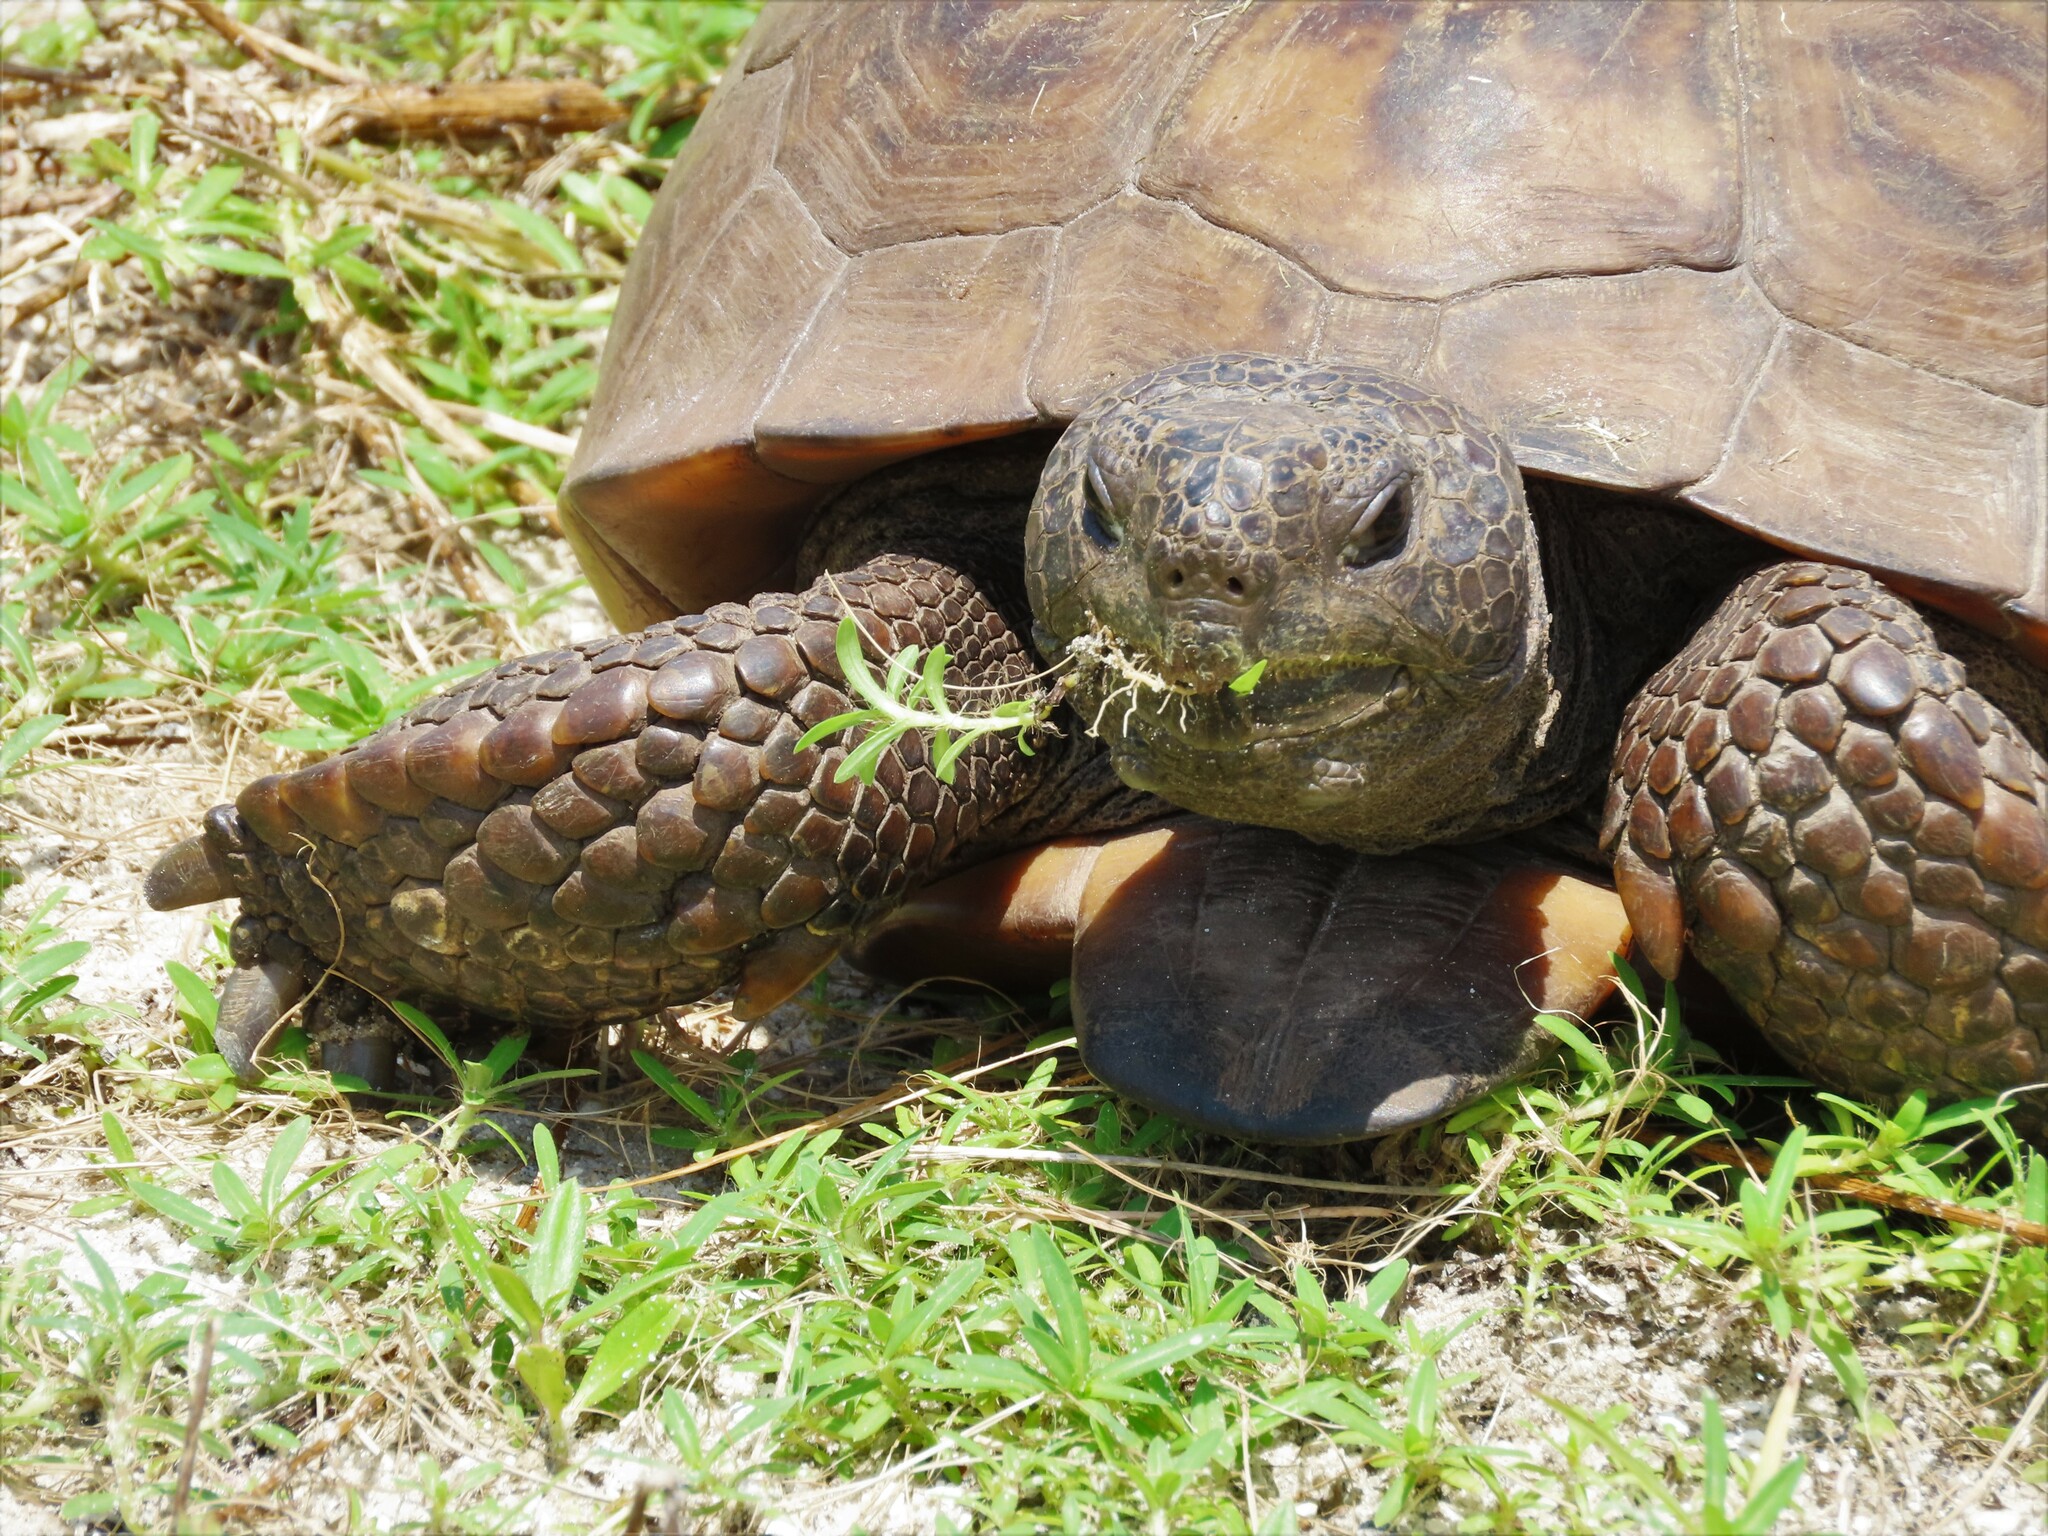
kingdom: Animalia
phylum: Chordata
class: Testudines
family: Testudinidae
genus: Gopherus
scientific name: Gopherus polyphemus
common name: Florida gopher tortoise
